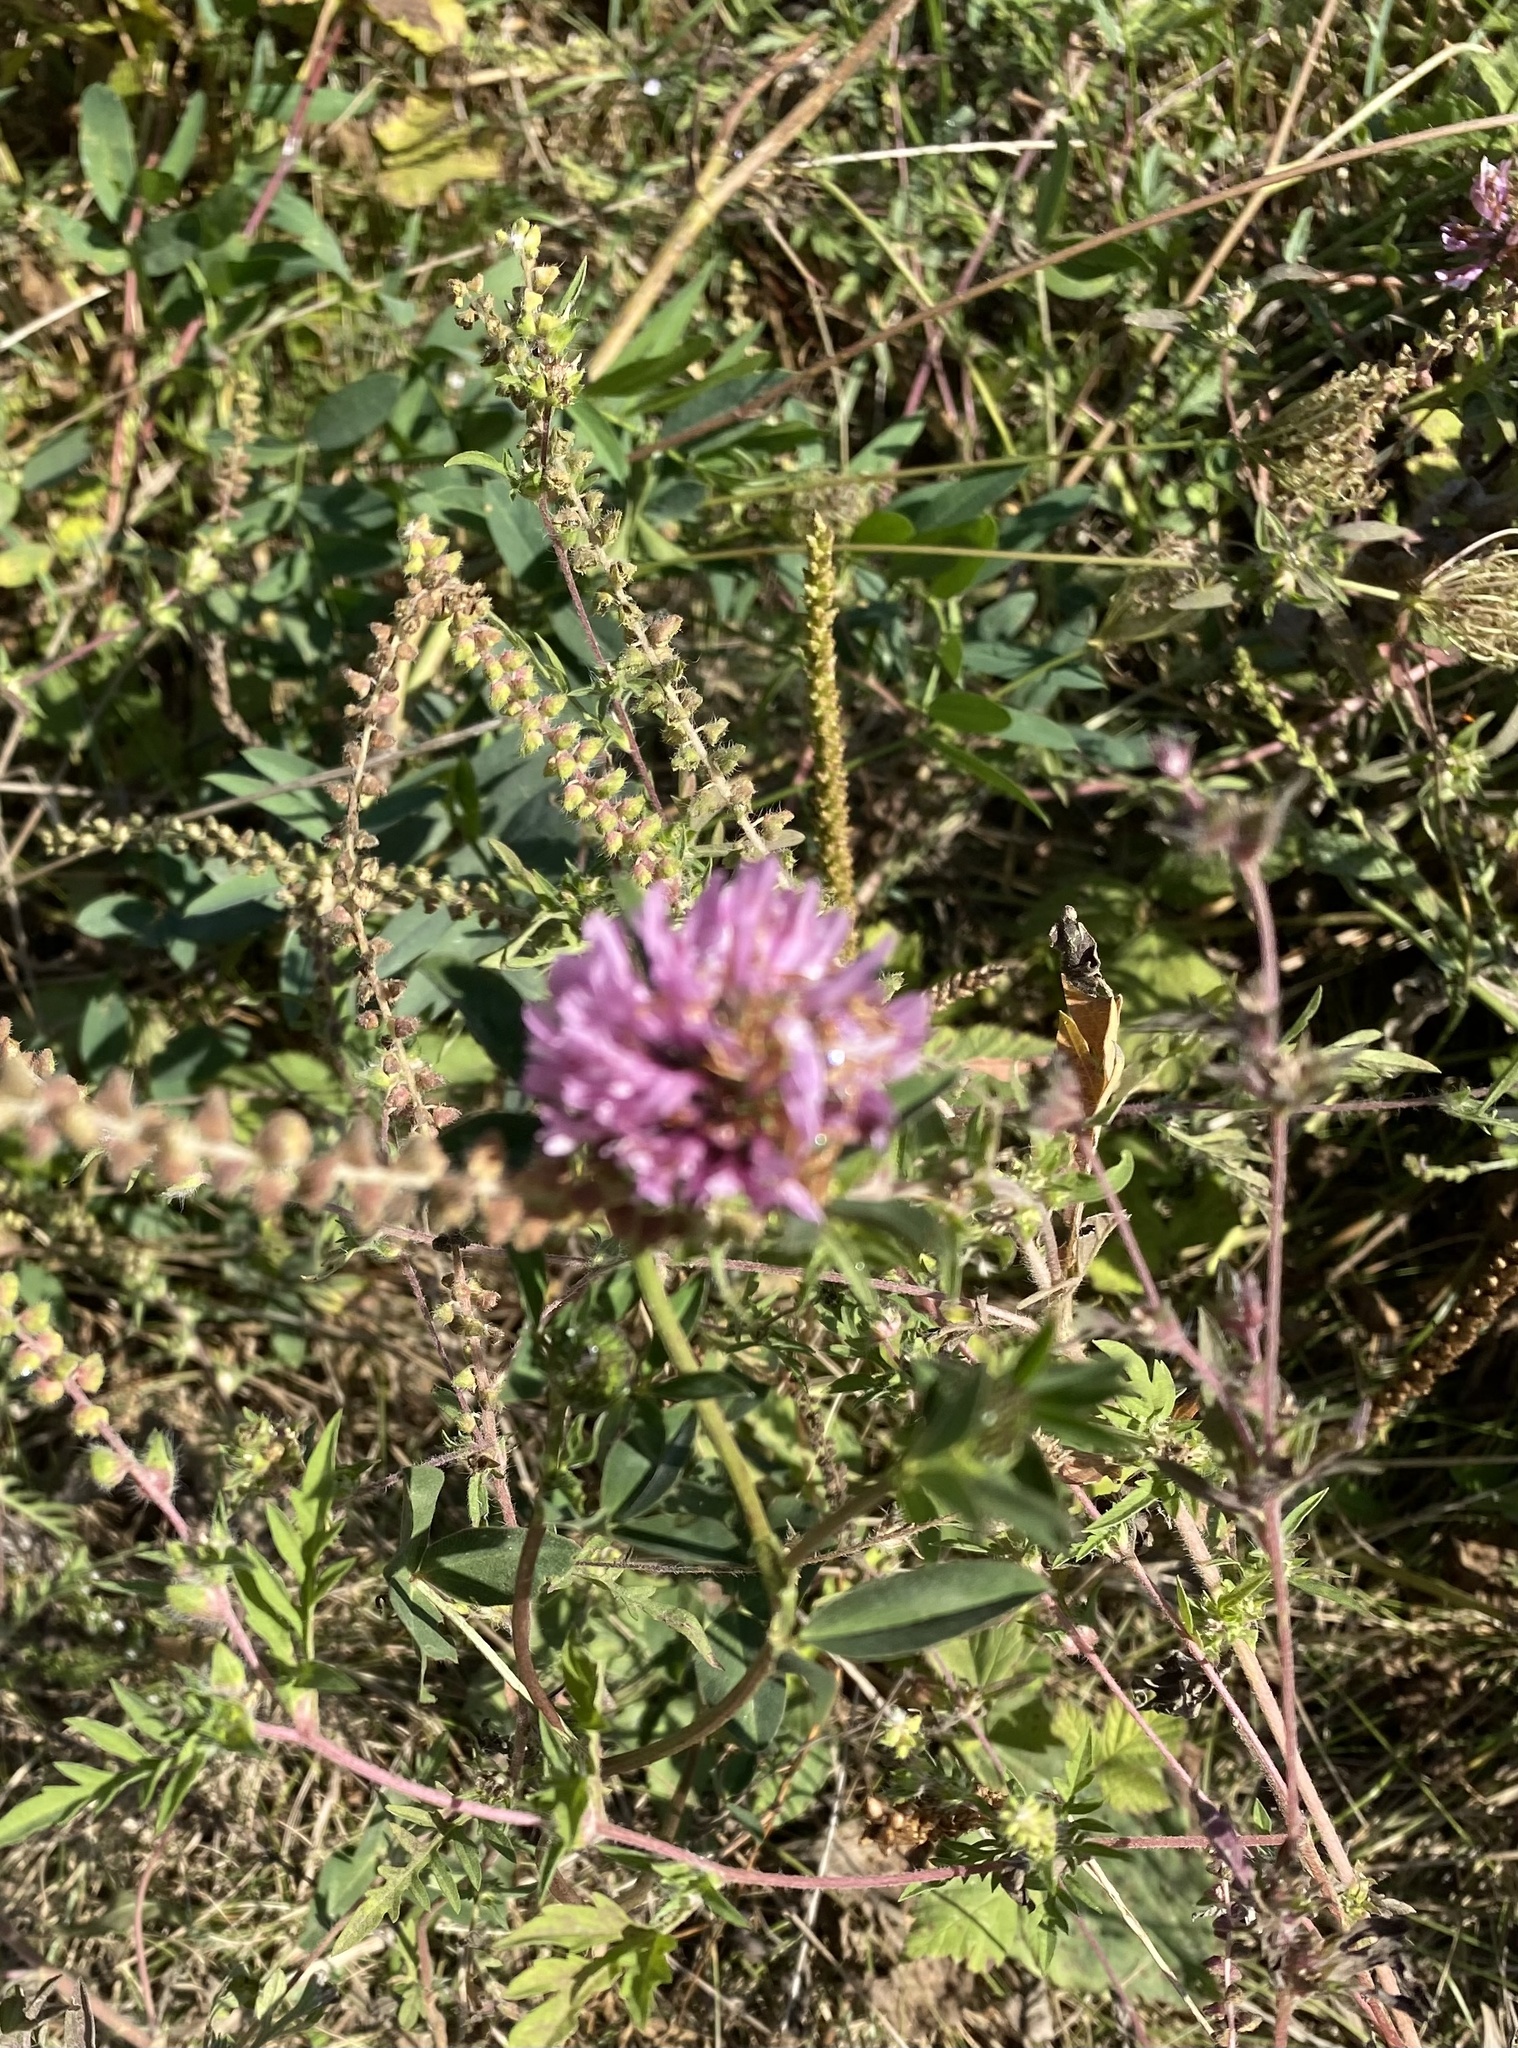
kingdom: Plantae
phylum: Tracheophyta
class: Magnoliopsida
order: Fabales
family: Fabaceae
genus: Trifolium
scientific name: Trifolium pratense
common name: Red clover
